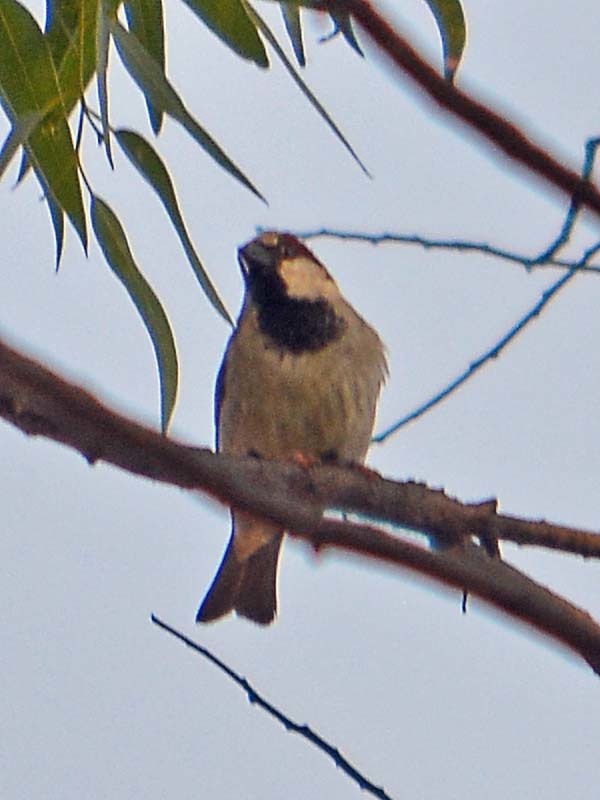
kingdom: Animalia
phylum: Chordata
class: Aves
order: Passeriformes
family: Passeridae
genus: Passer
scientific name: Passer domesticus
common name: House sparrow
